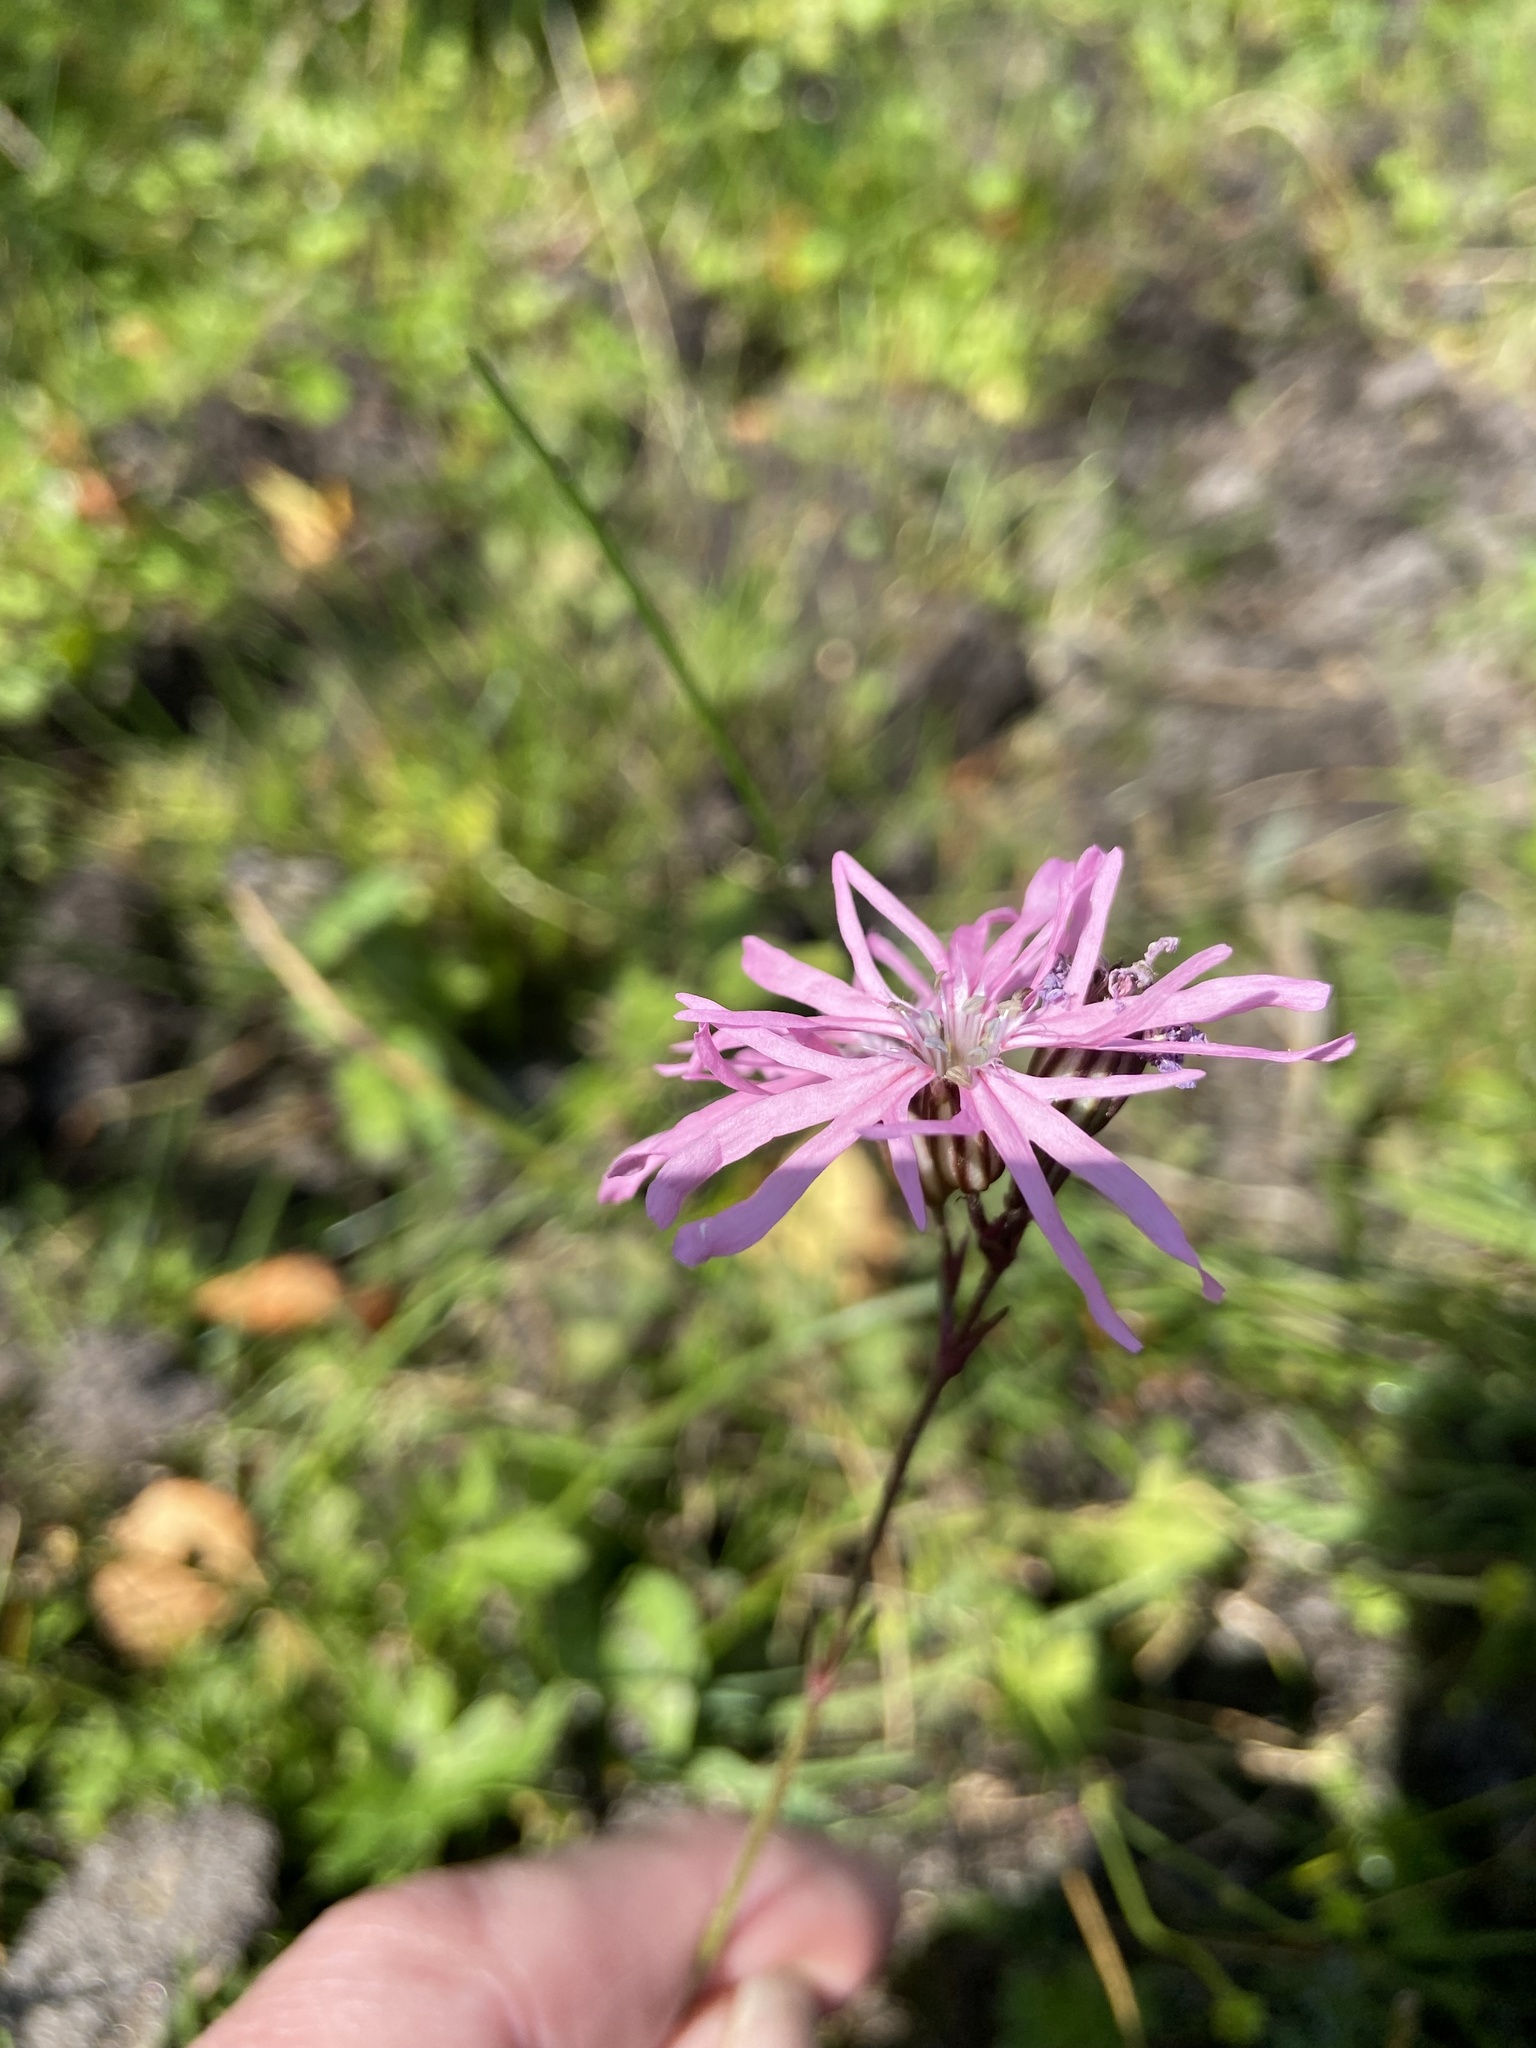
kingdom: Plantae
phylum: Tracheophyta
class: Magnoliopsida
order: Caryophyllales
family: Caryophyllaceae
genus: Silene
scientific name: Silene flos-cuculi
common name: Ragged-robin
